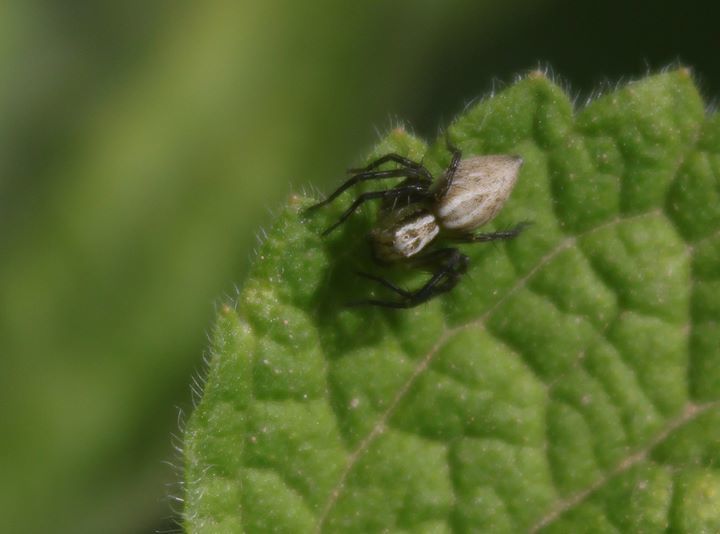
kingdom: Animalia
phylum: Arthropoda
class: Arachnida
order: Araneae
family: Oxyopidae
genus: Oxyopes
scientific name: Oxyopes lineatus
